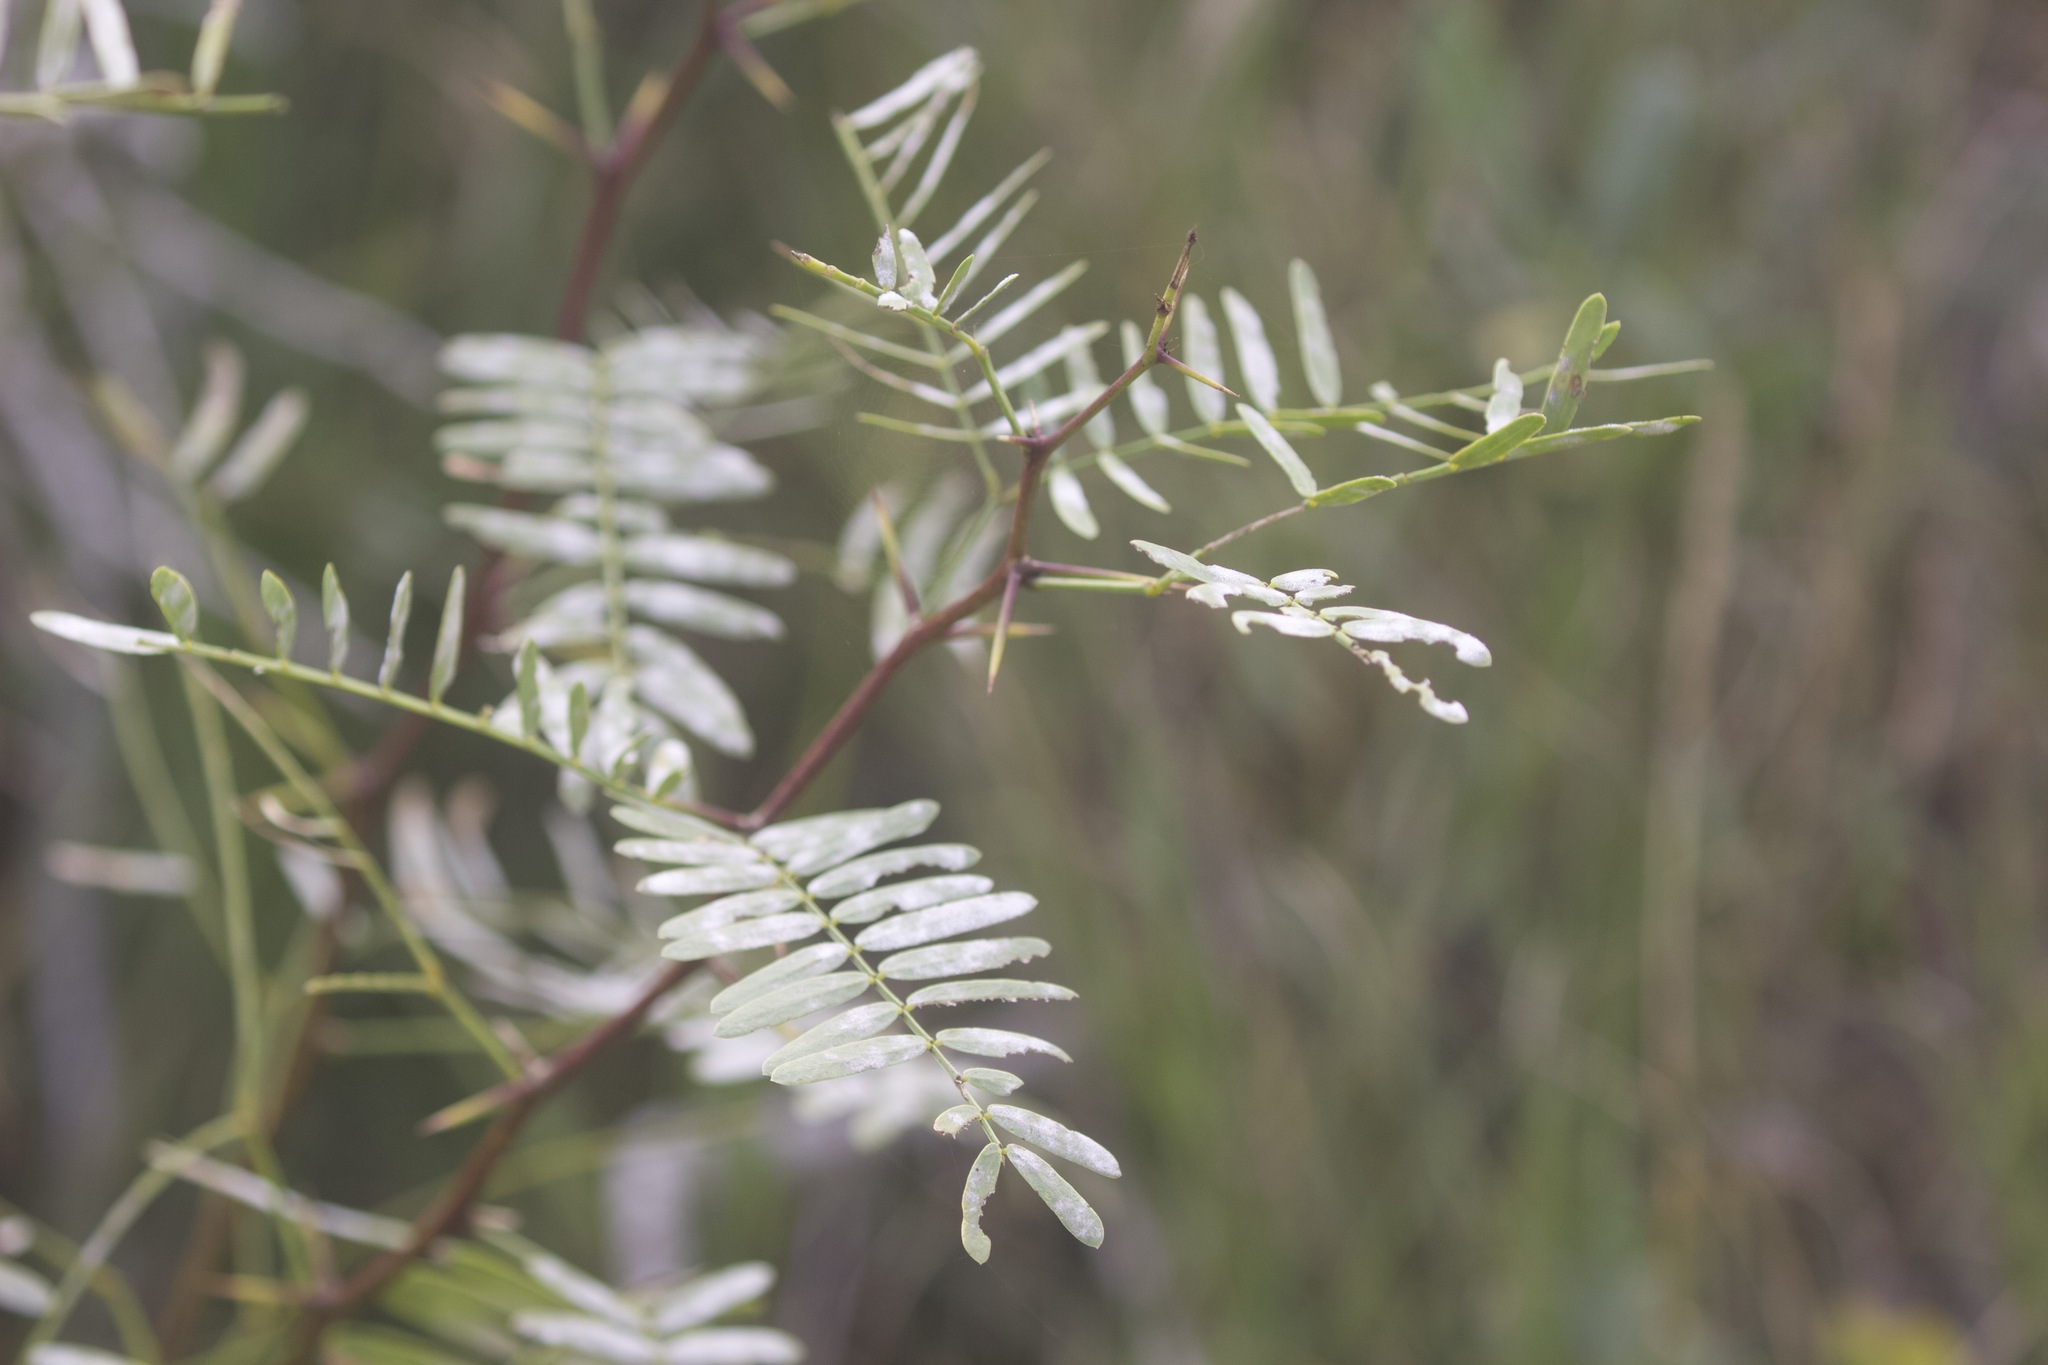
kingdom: Plantae
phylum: Tracheophyta
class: Magnoliopsida
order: Fabales
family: Fabaceae
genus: Prosopis
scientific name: Prosopis glandulosa
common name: Honey mesquite
